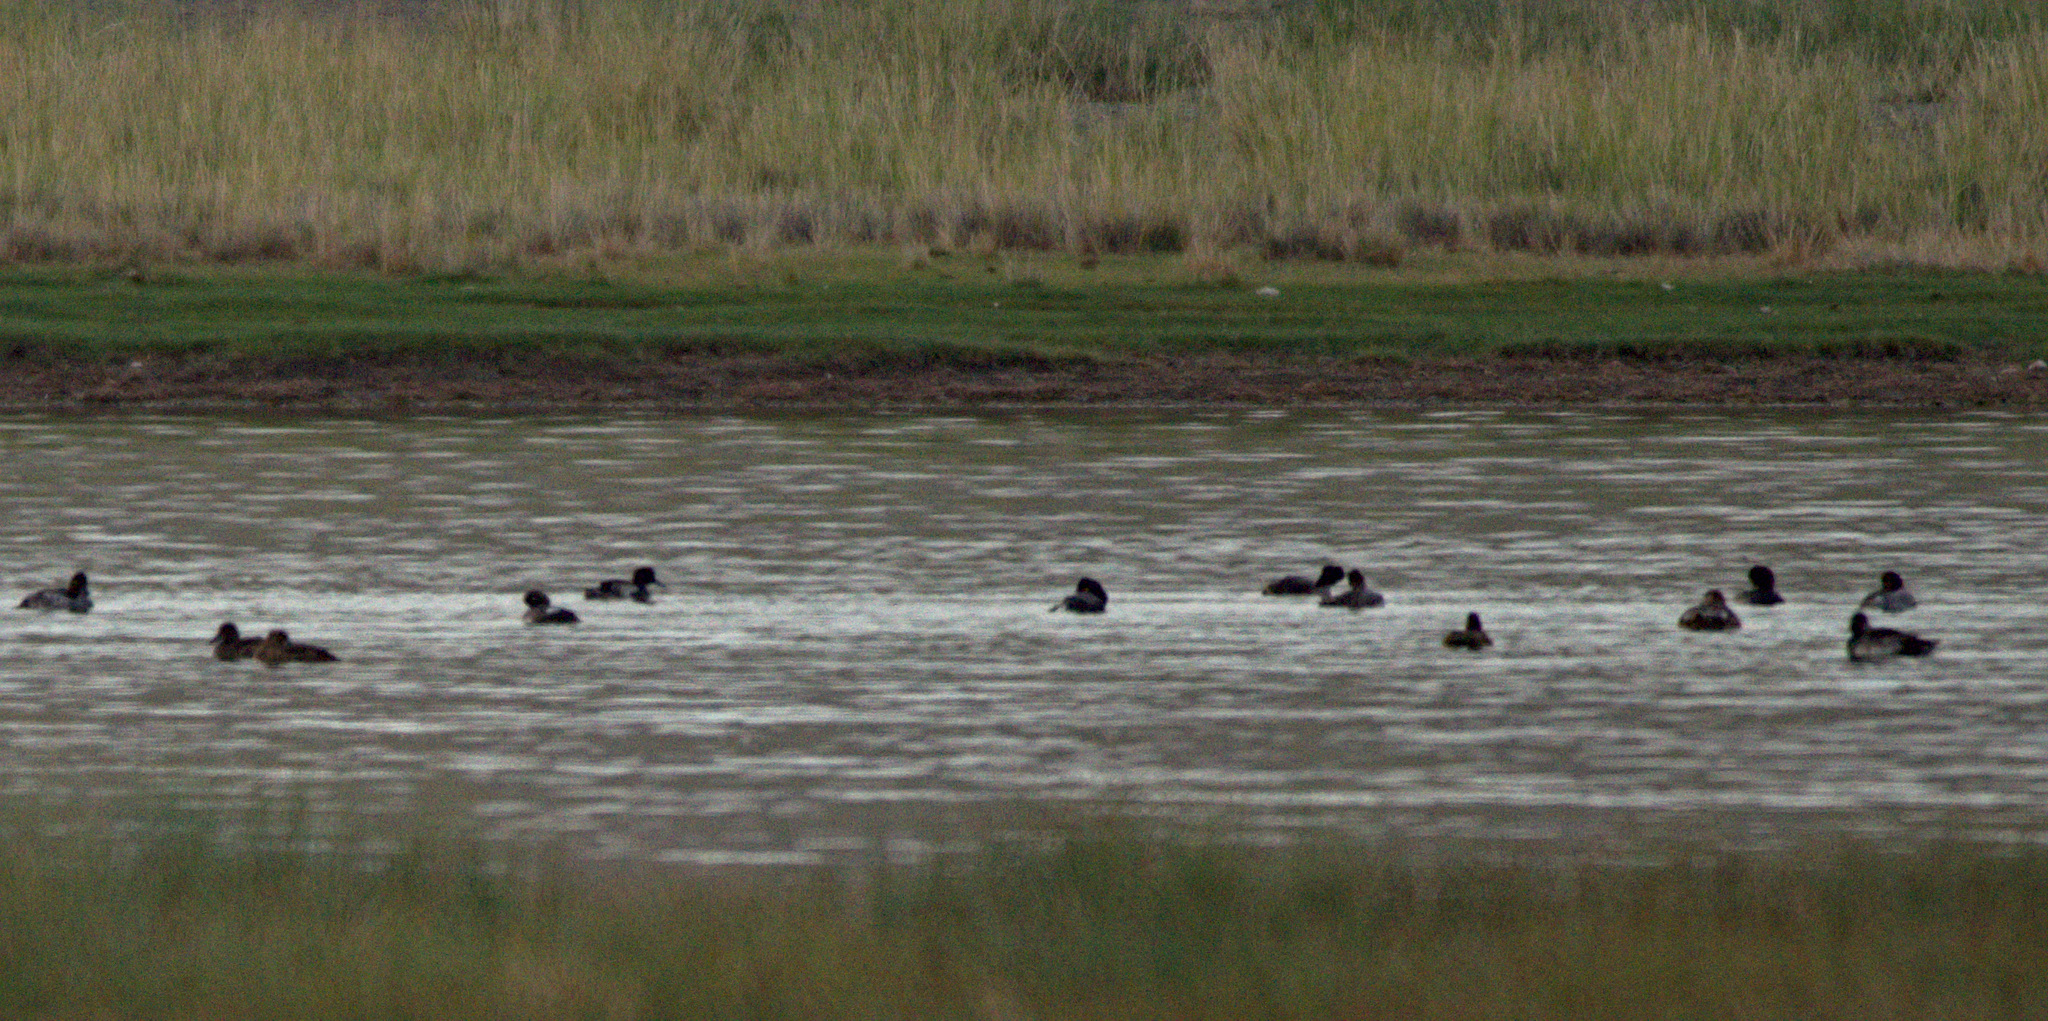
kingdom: Animalia
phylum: Chordata
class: Aves
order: Anseriformes
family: Anatidae
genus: Aythya
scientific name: Aythya ferina
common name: Common pochard
